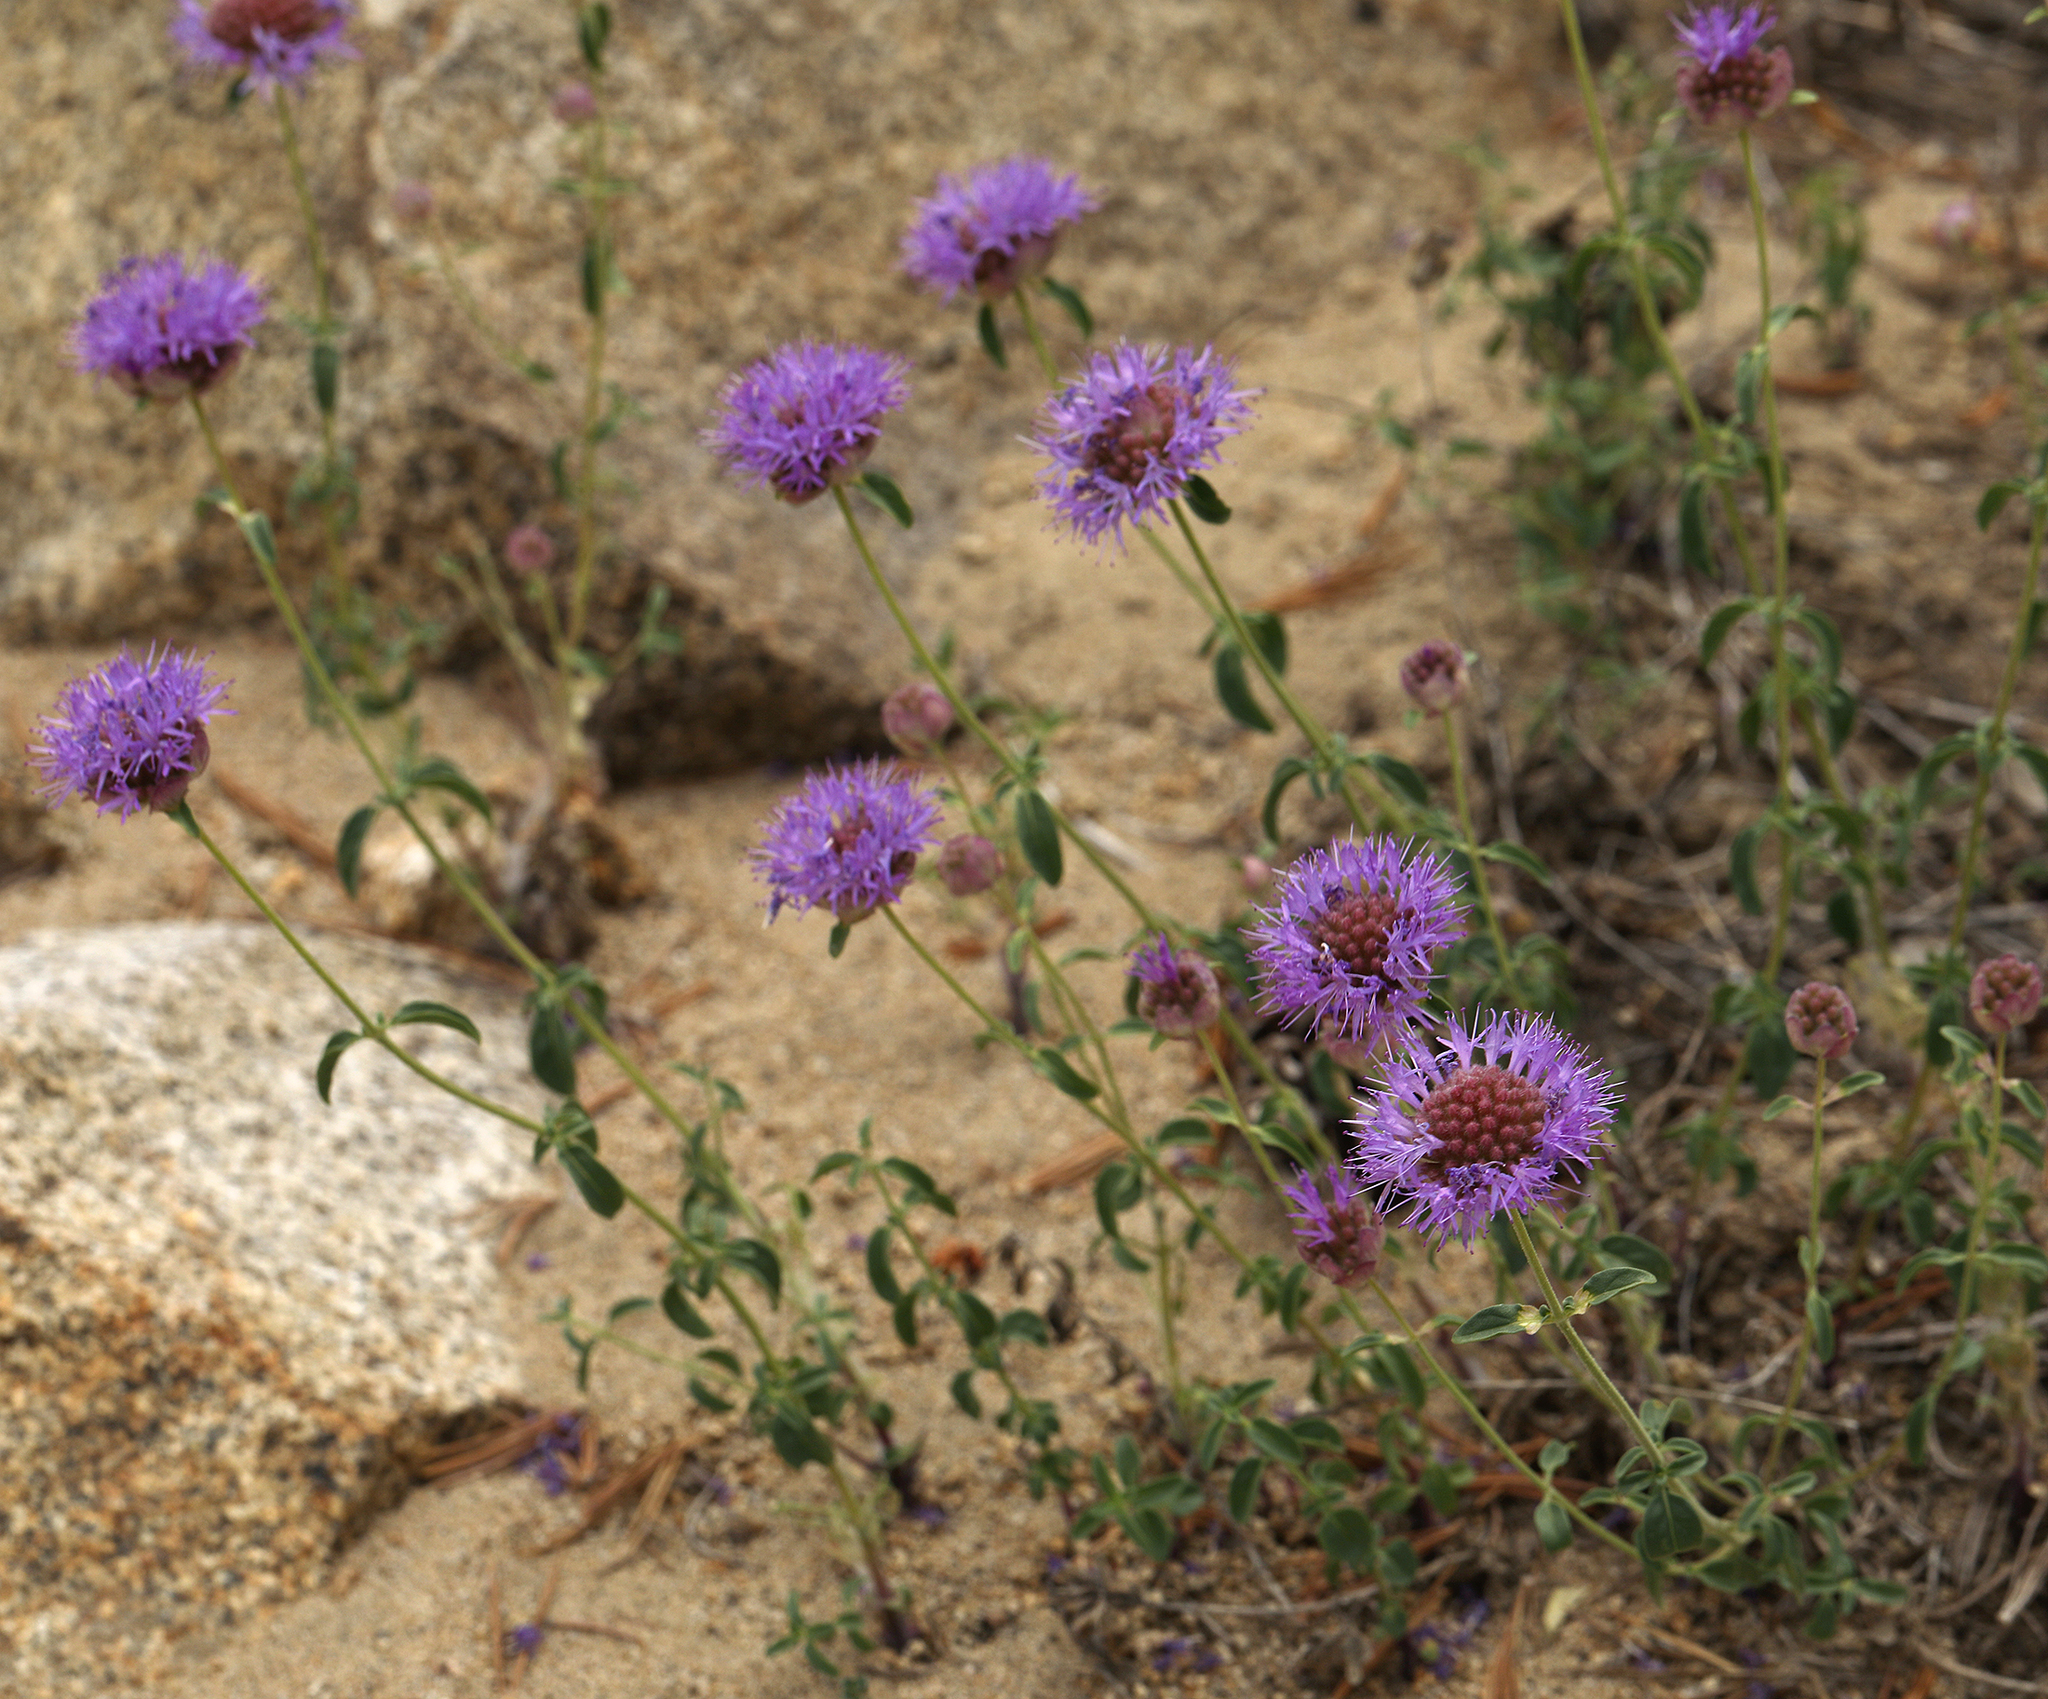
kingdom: Plantae
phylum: Tracheophyta
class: Magnoliopsida
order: Lamiales
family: Lamiaceae
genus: Monardella
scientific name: Monardella odoratissima
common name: Pacific monardella
